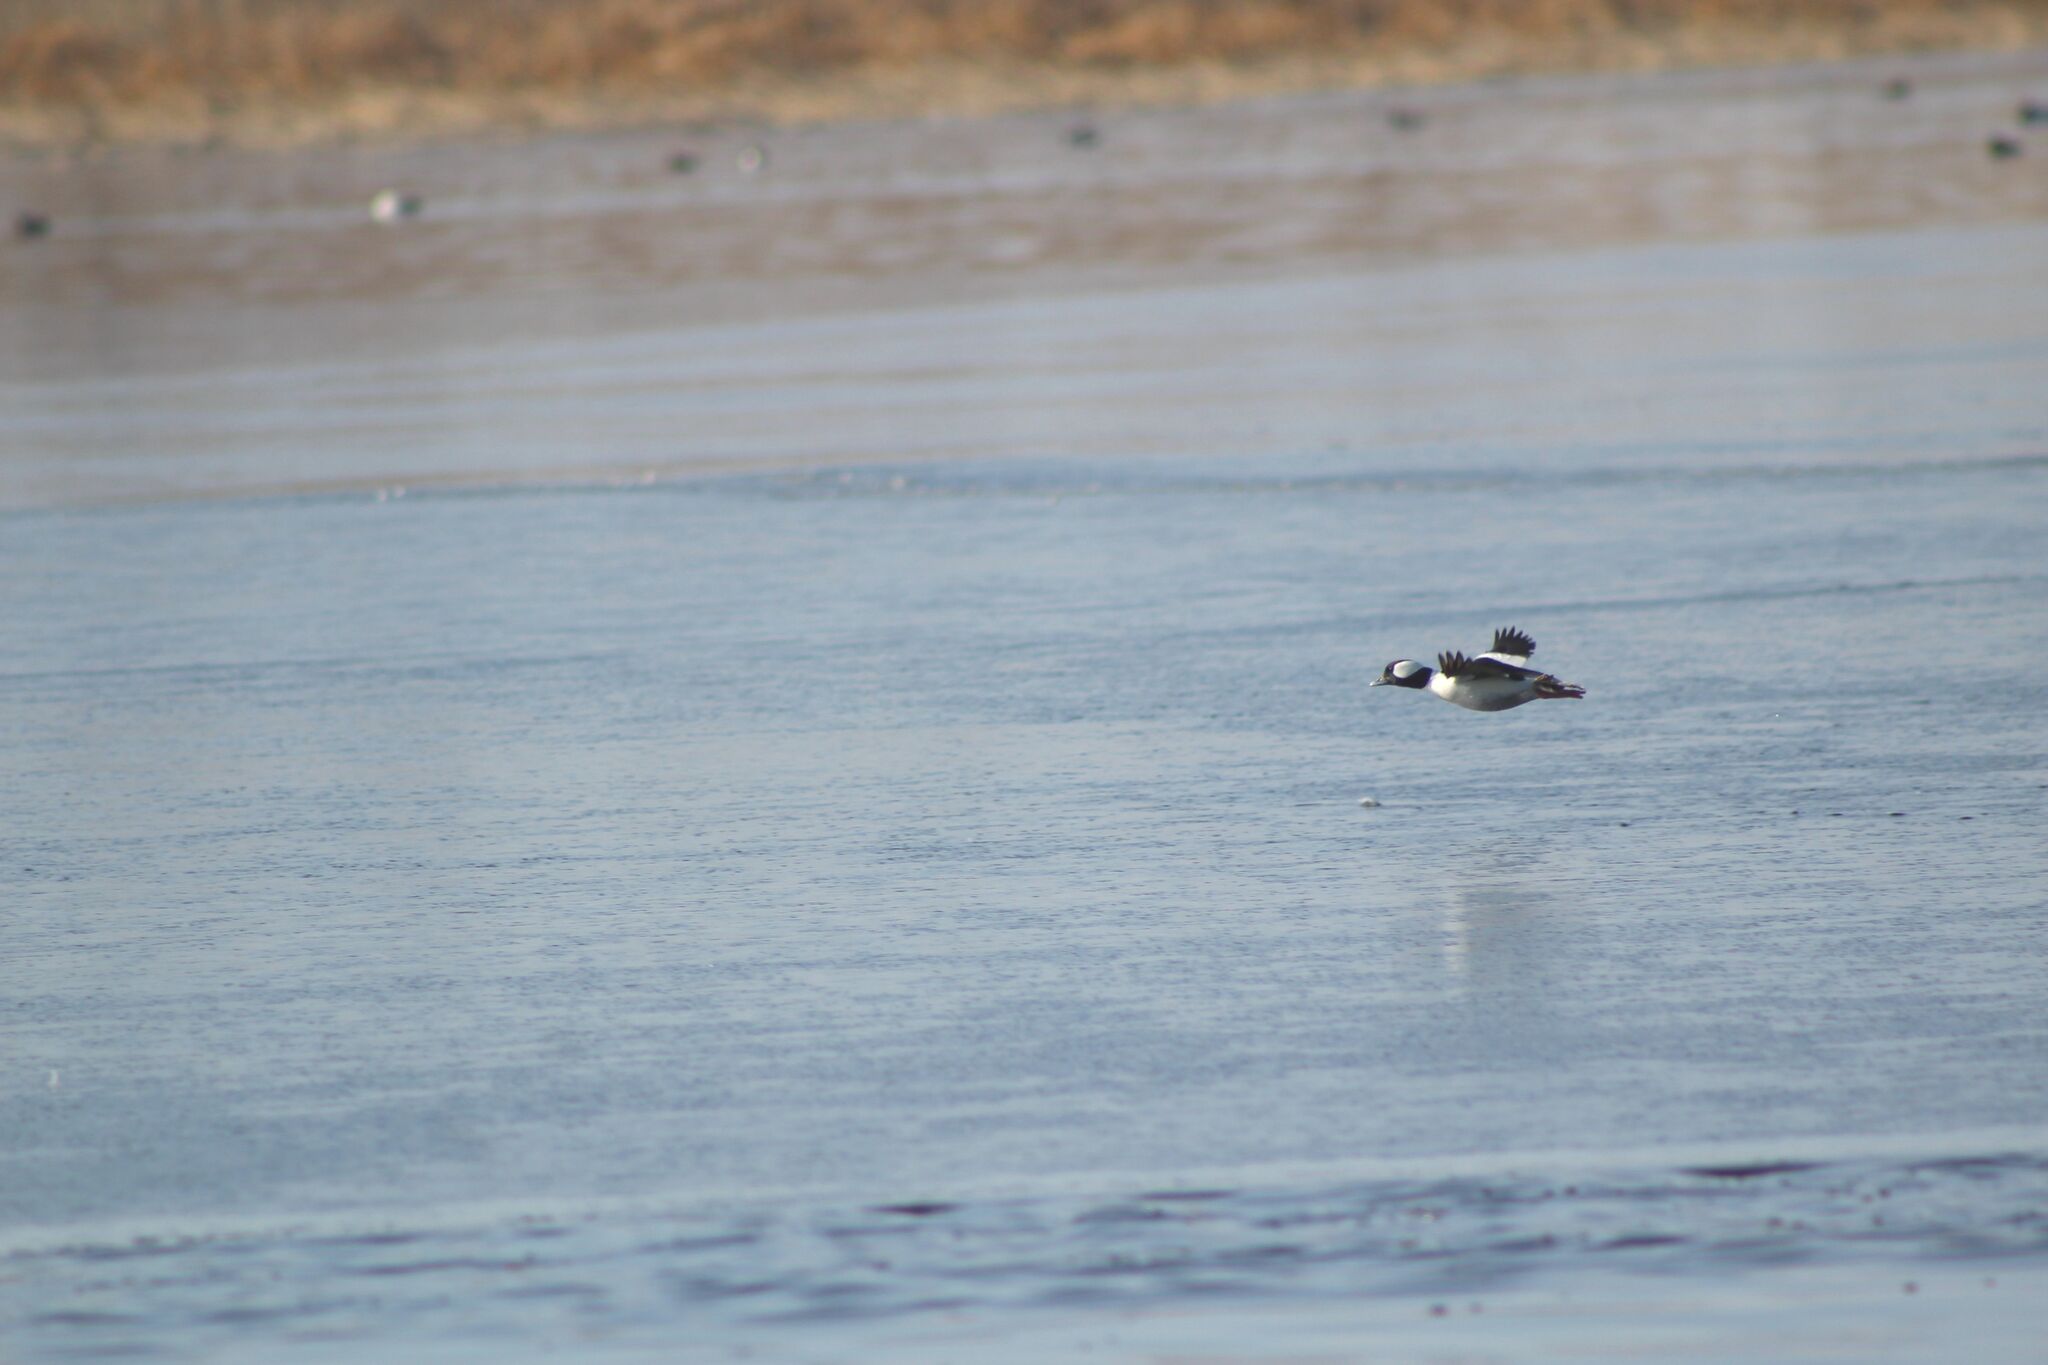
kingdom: Animalia
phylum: Chordata
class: Aves
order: Anseriformes
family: Anatidae
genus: Bucephala
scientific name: Bucephala albeola
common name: Bufflehead
